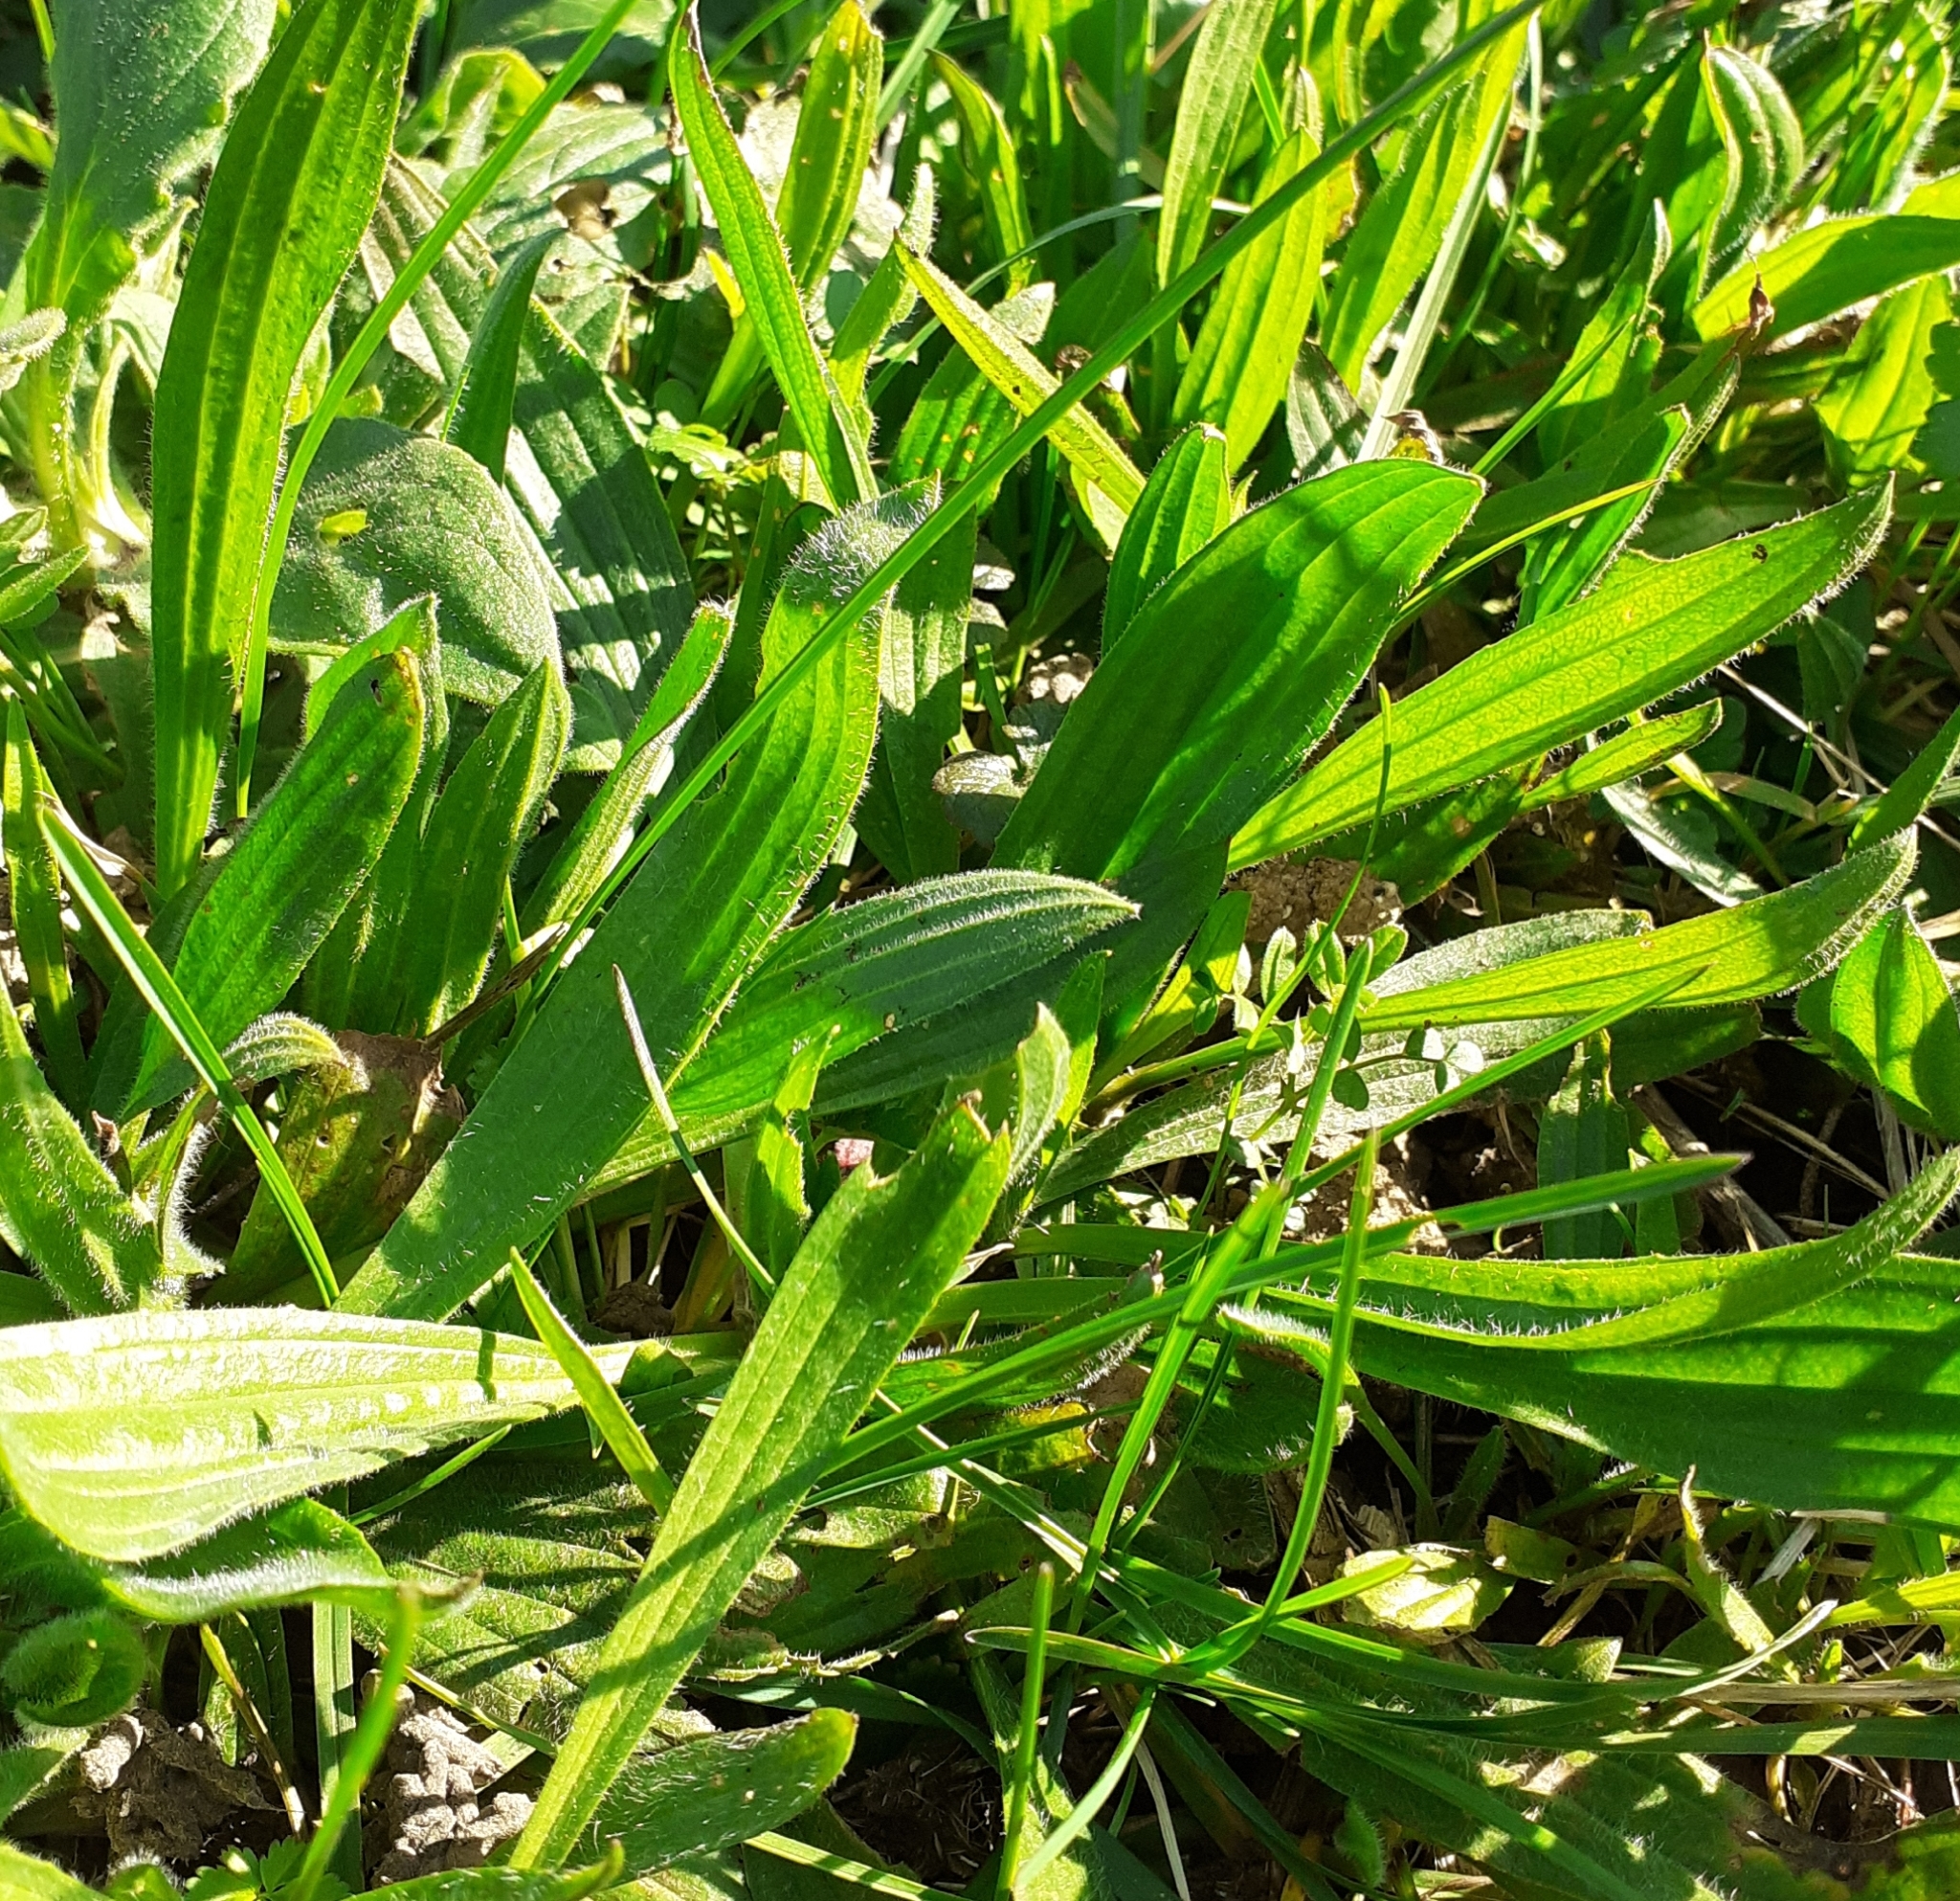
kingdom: Plantae
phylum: Tracheophyta
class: Magnoliopsida
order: Lamiales
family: Plantaginaceae
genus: Plantago
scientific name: Plantago lanceolata
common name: Ribwort plantain
